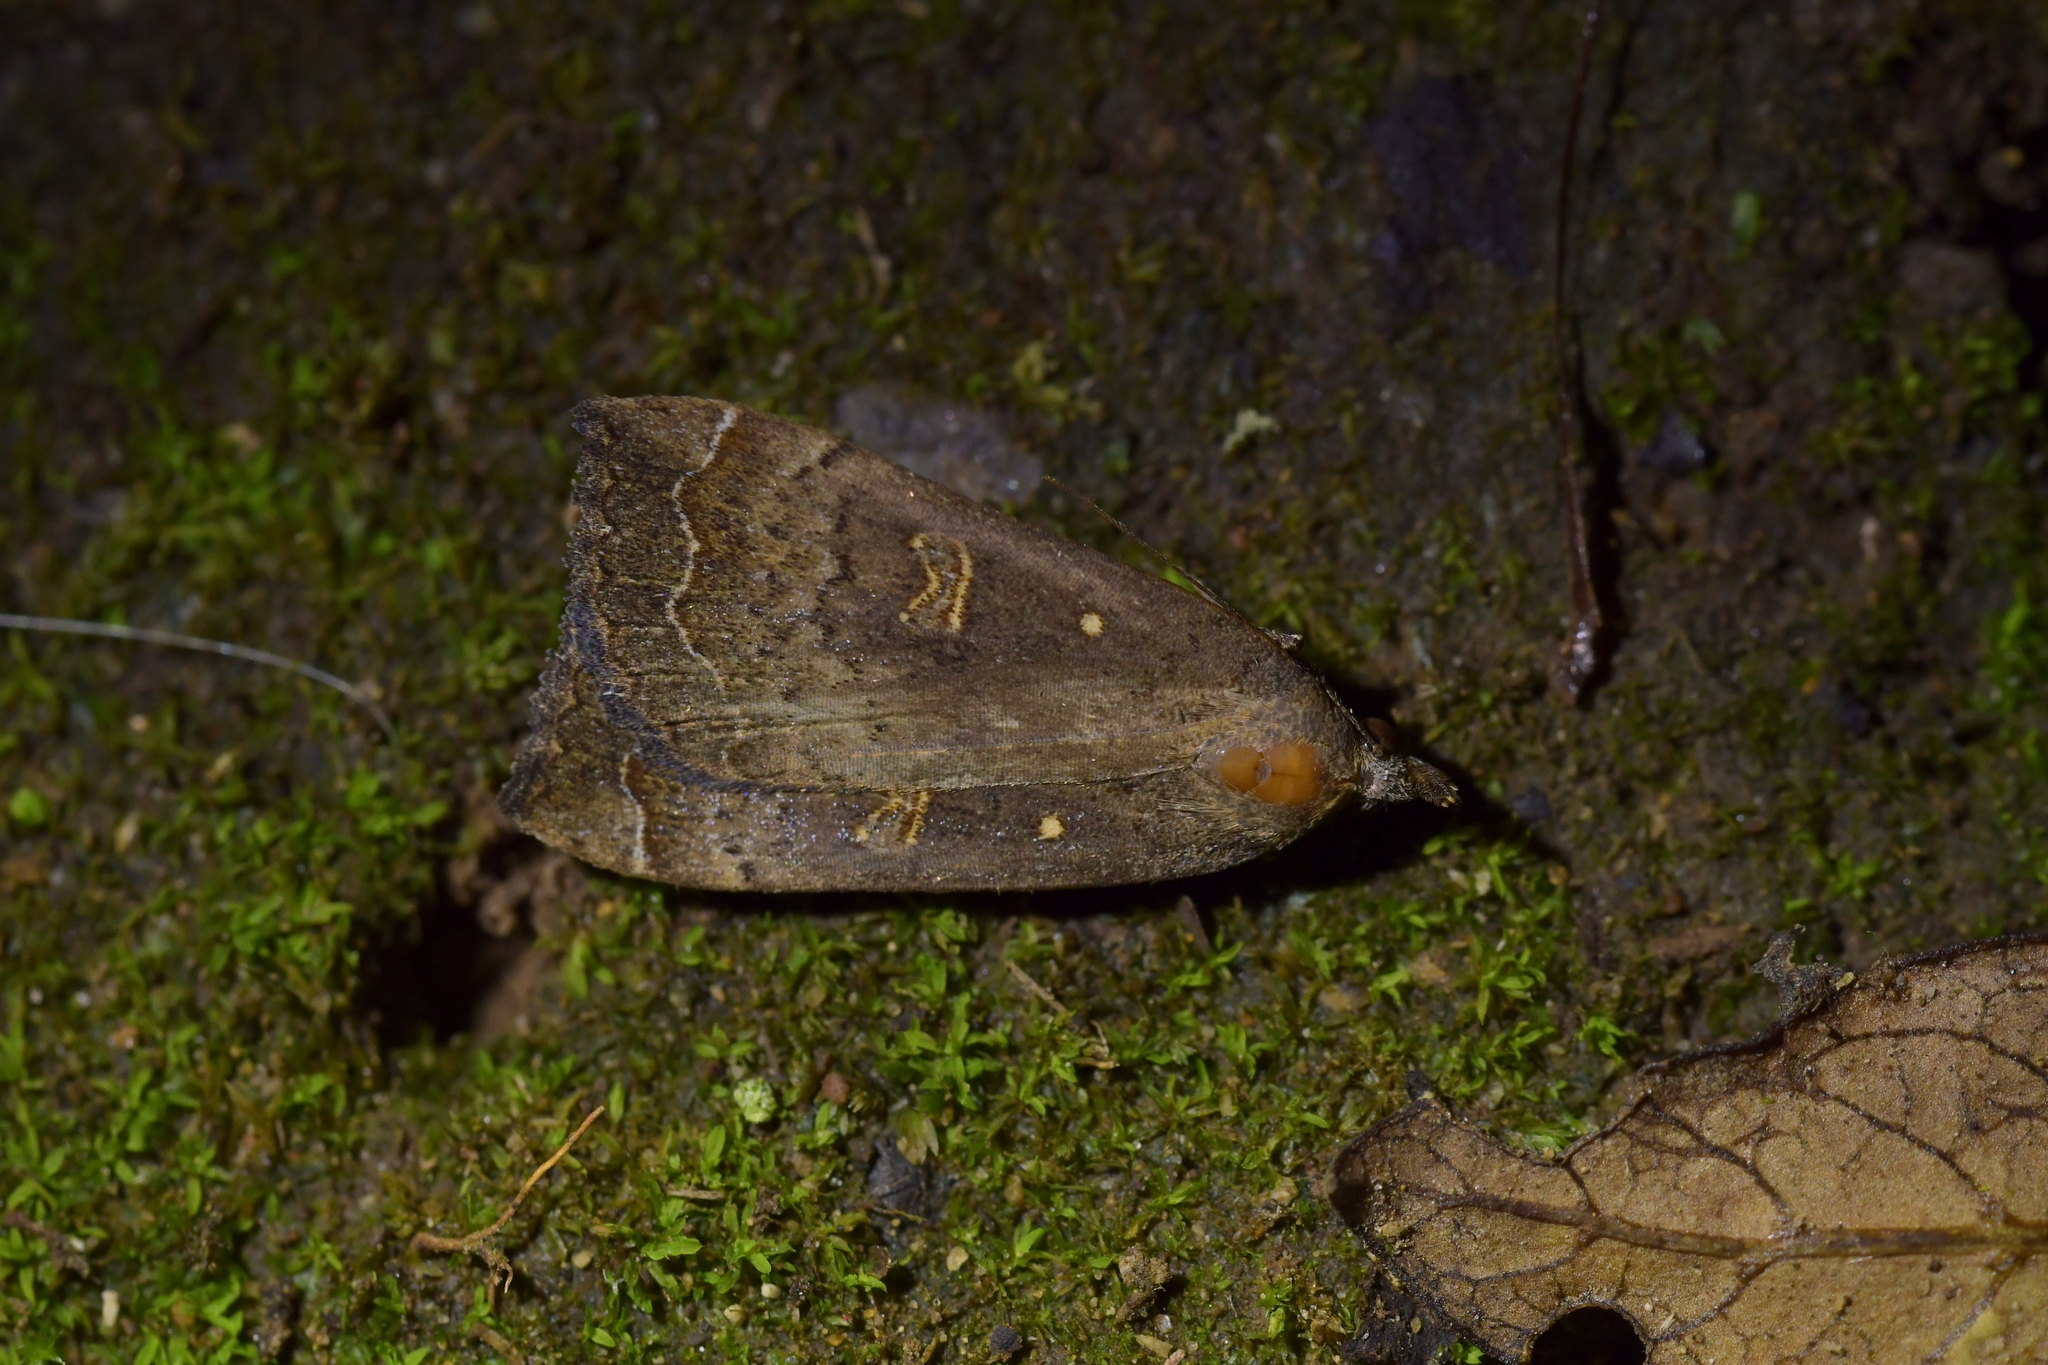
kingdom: Animalia
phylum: Arthropoda
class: Insecta
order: Lepidoptera
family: Erebidae
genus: Rhapsa
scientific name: Rhapsa scotosialis
